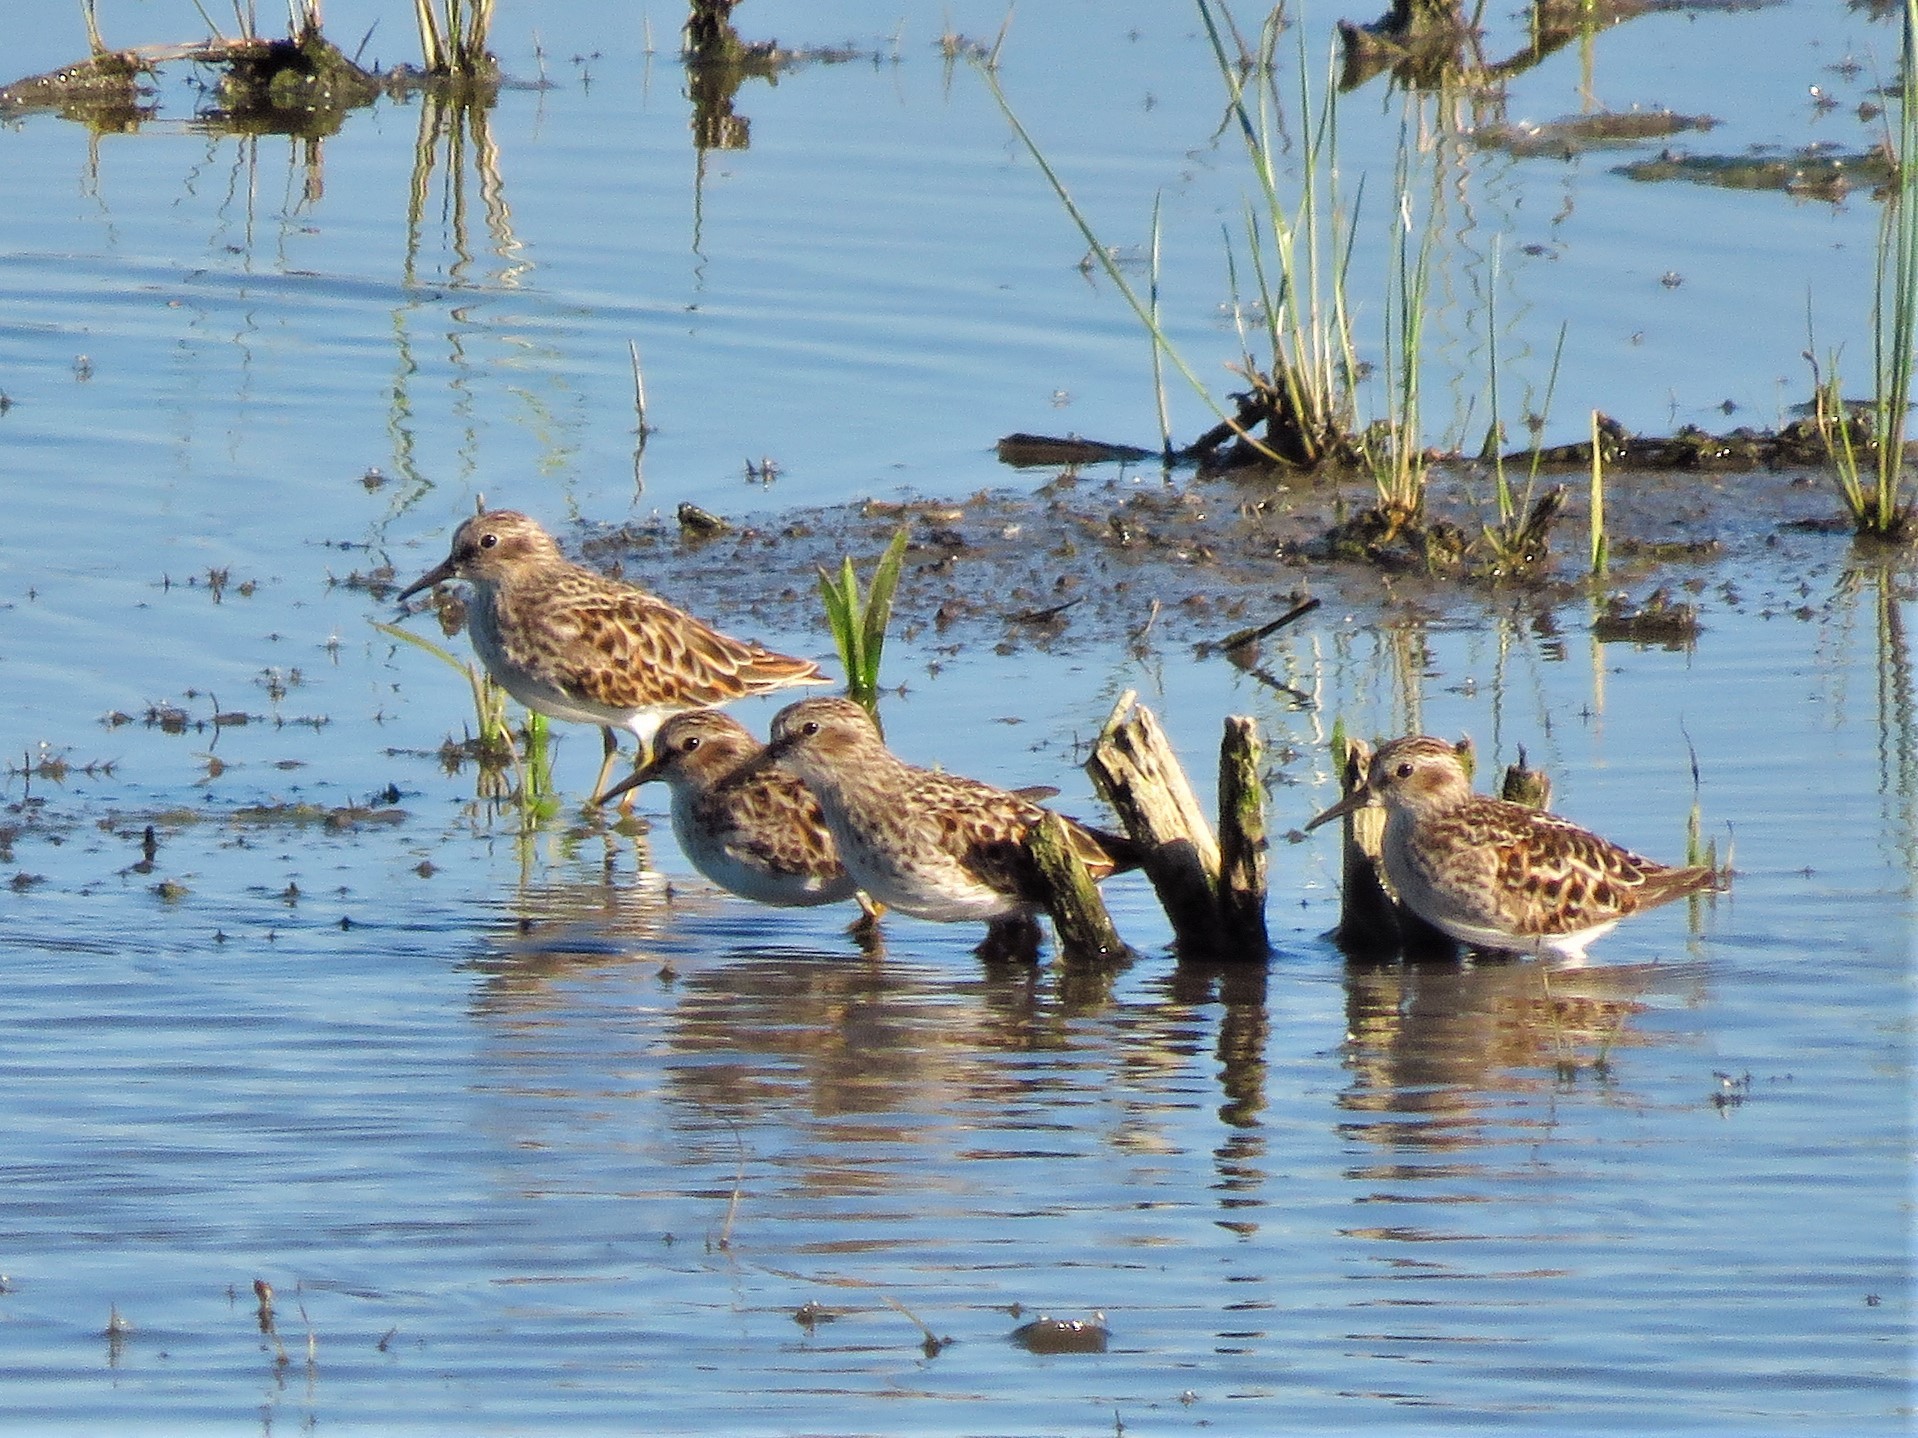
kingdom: Animalia
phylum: Chordata
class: Aves
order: Charadriiformes
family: Scolopacidae
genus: Calidris
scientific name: Calidris minutilla
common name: Least sandpiper
